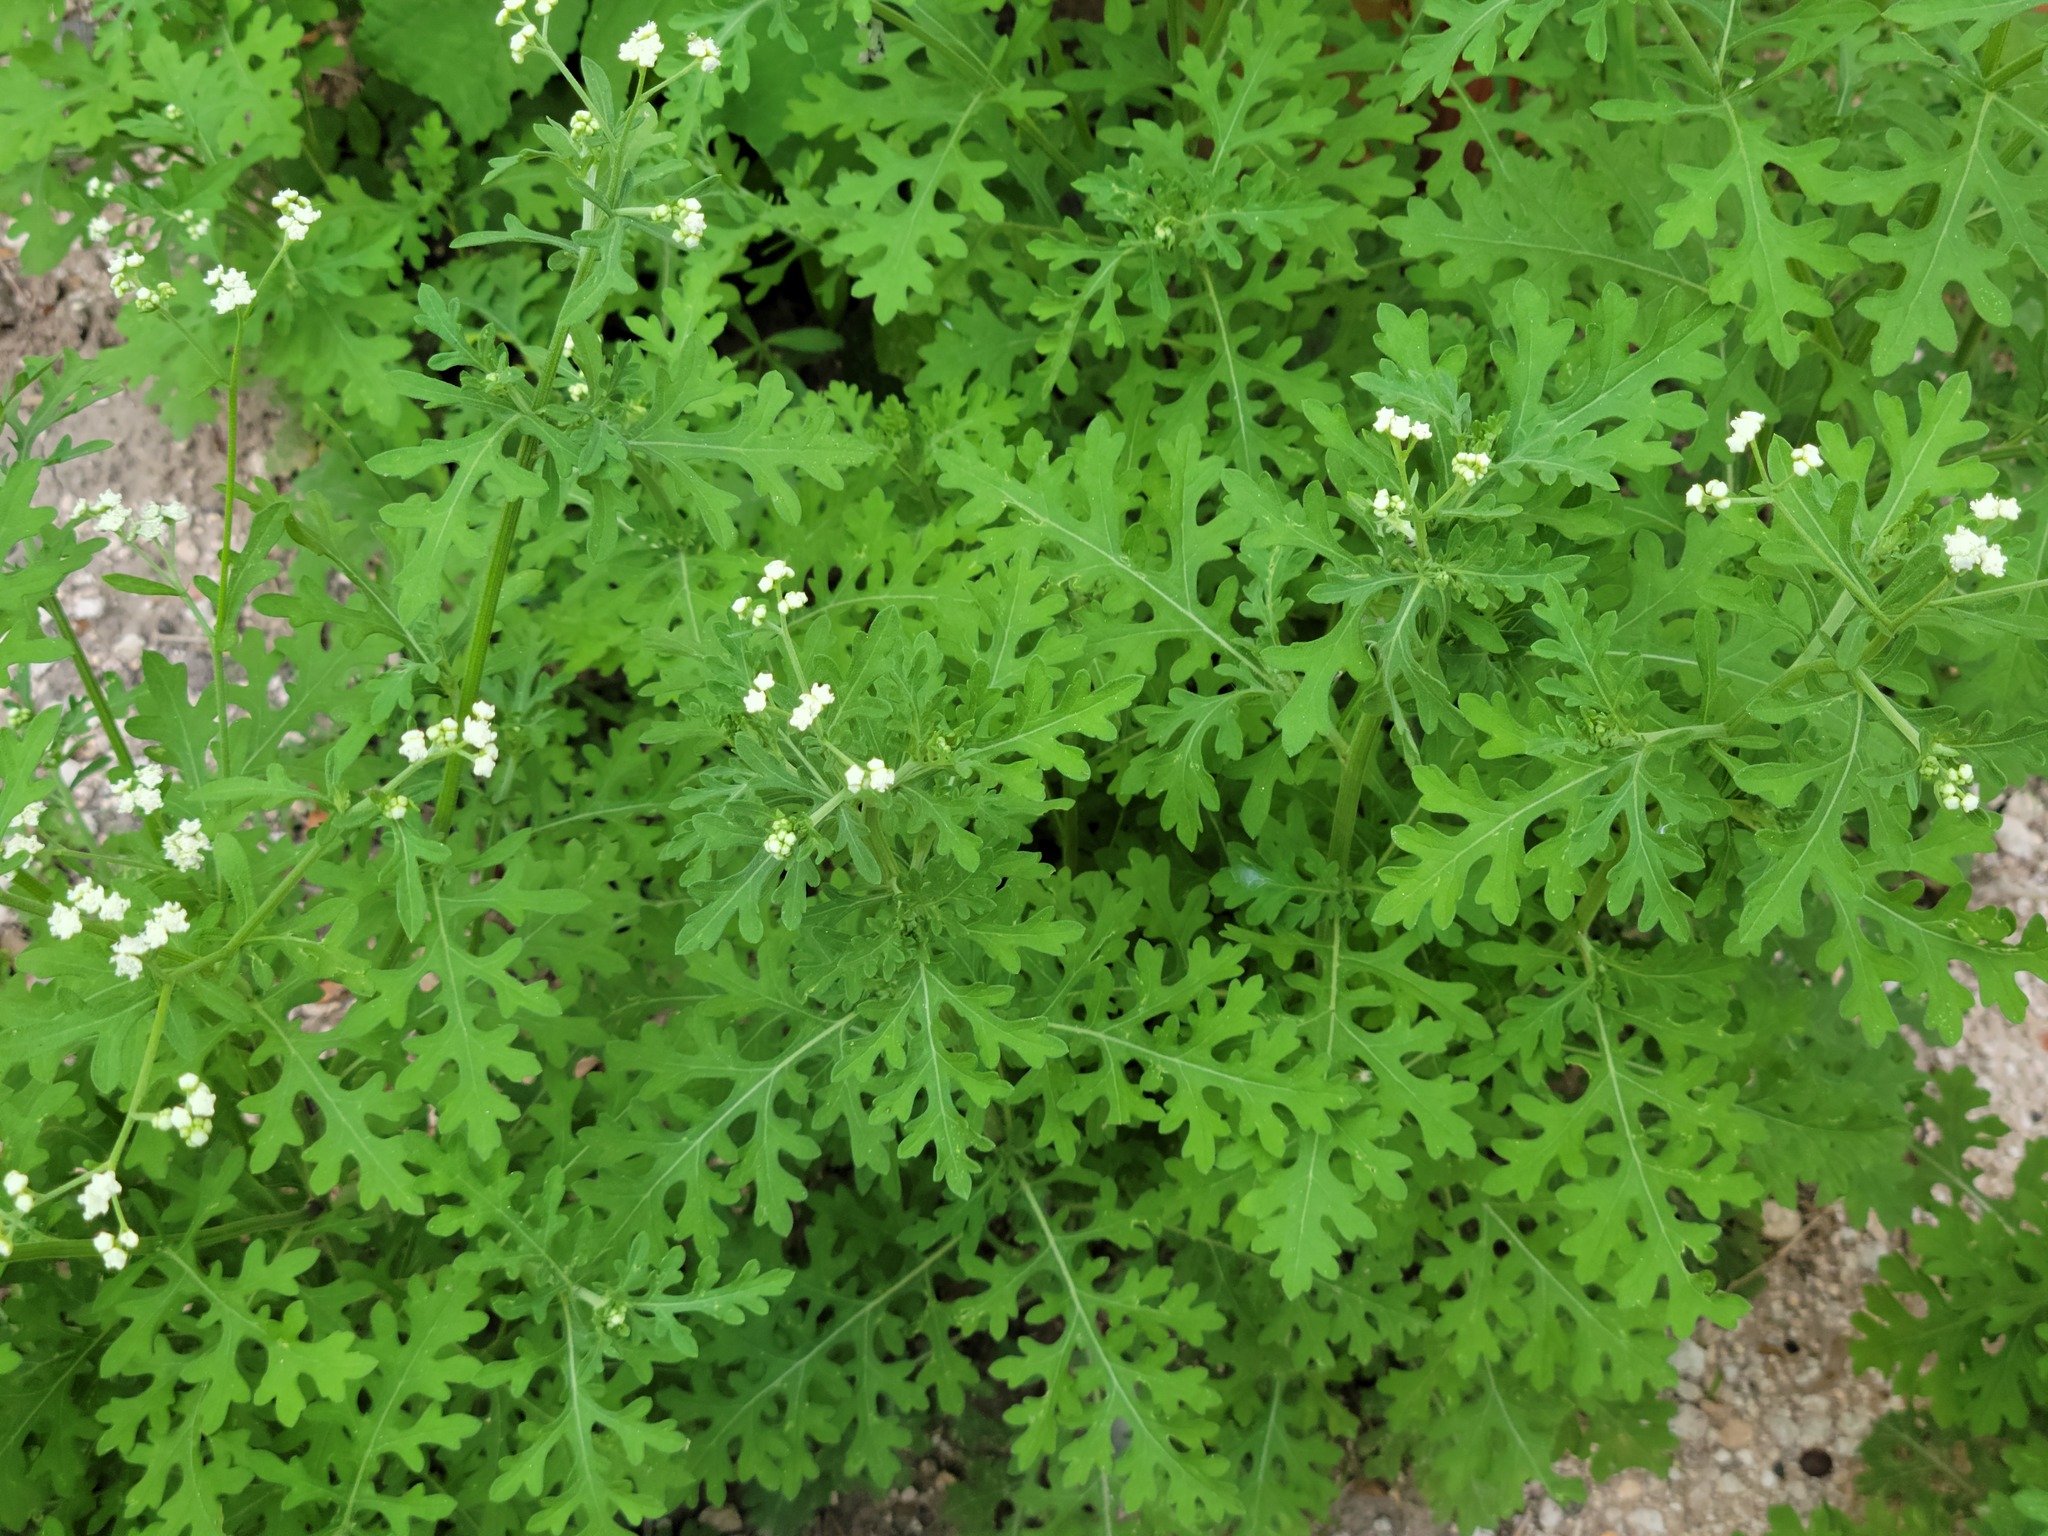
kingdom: Plantae
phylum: Tracheophyta
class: Magnoliopsida
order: Asterales
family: Asteraceae
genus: Parthenium
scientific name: Parthenium hysterophorus
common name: Santa maria feverfew
